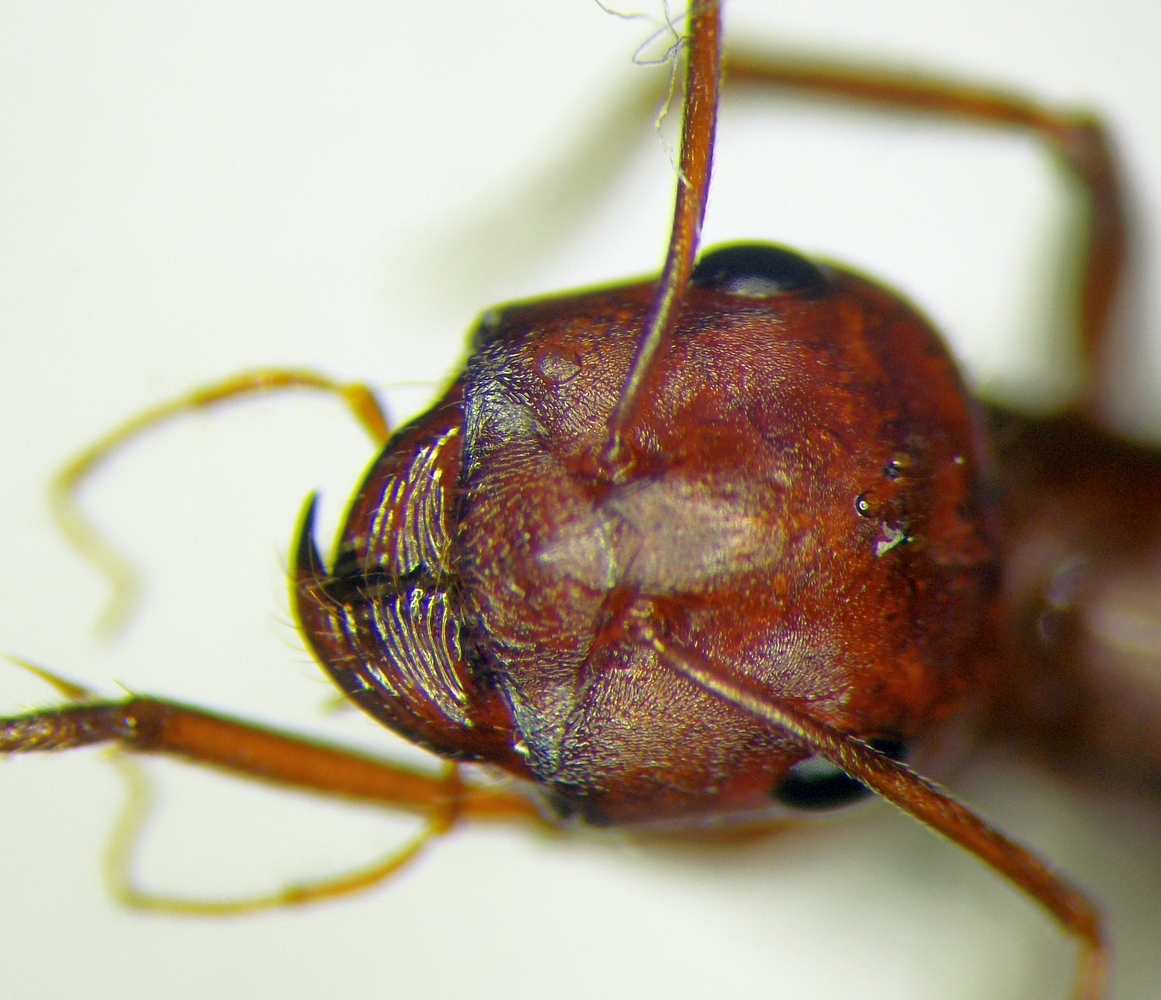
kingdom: Animalia
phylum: Arthropoda
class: Insecta
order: Hymenoptera
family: Formicidae
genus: Cataglyphis
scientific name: Cataglyphis aphrodite
